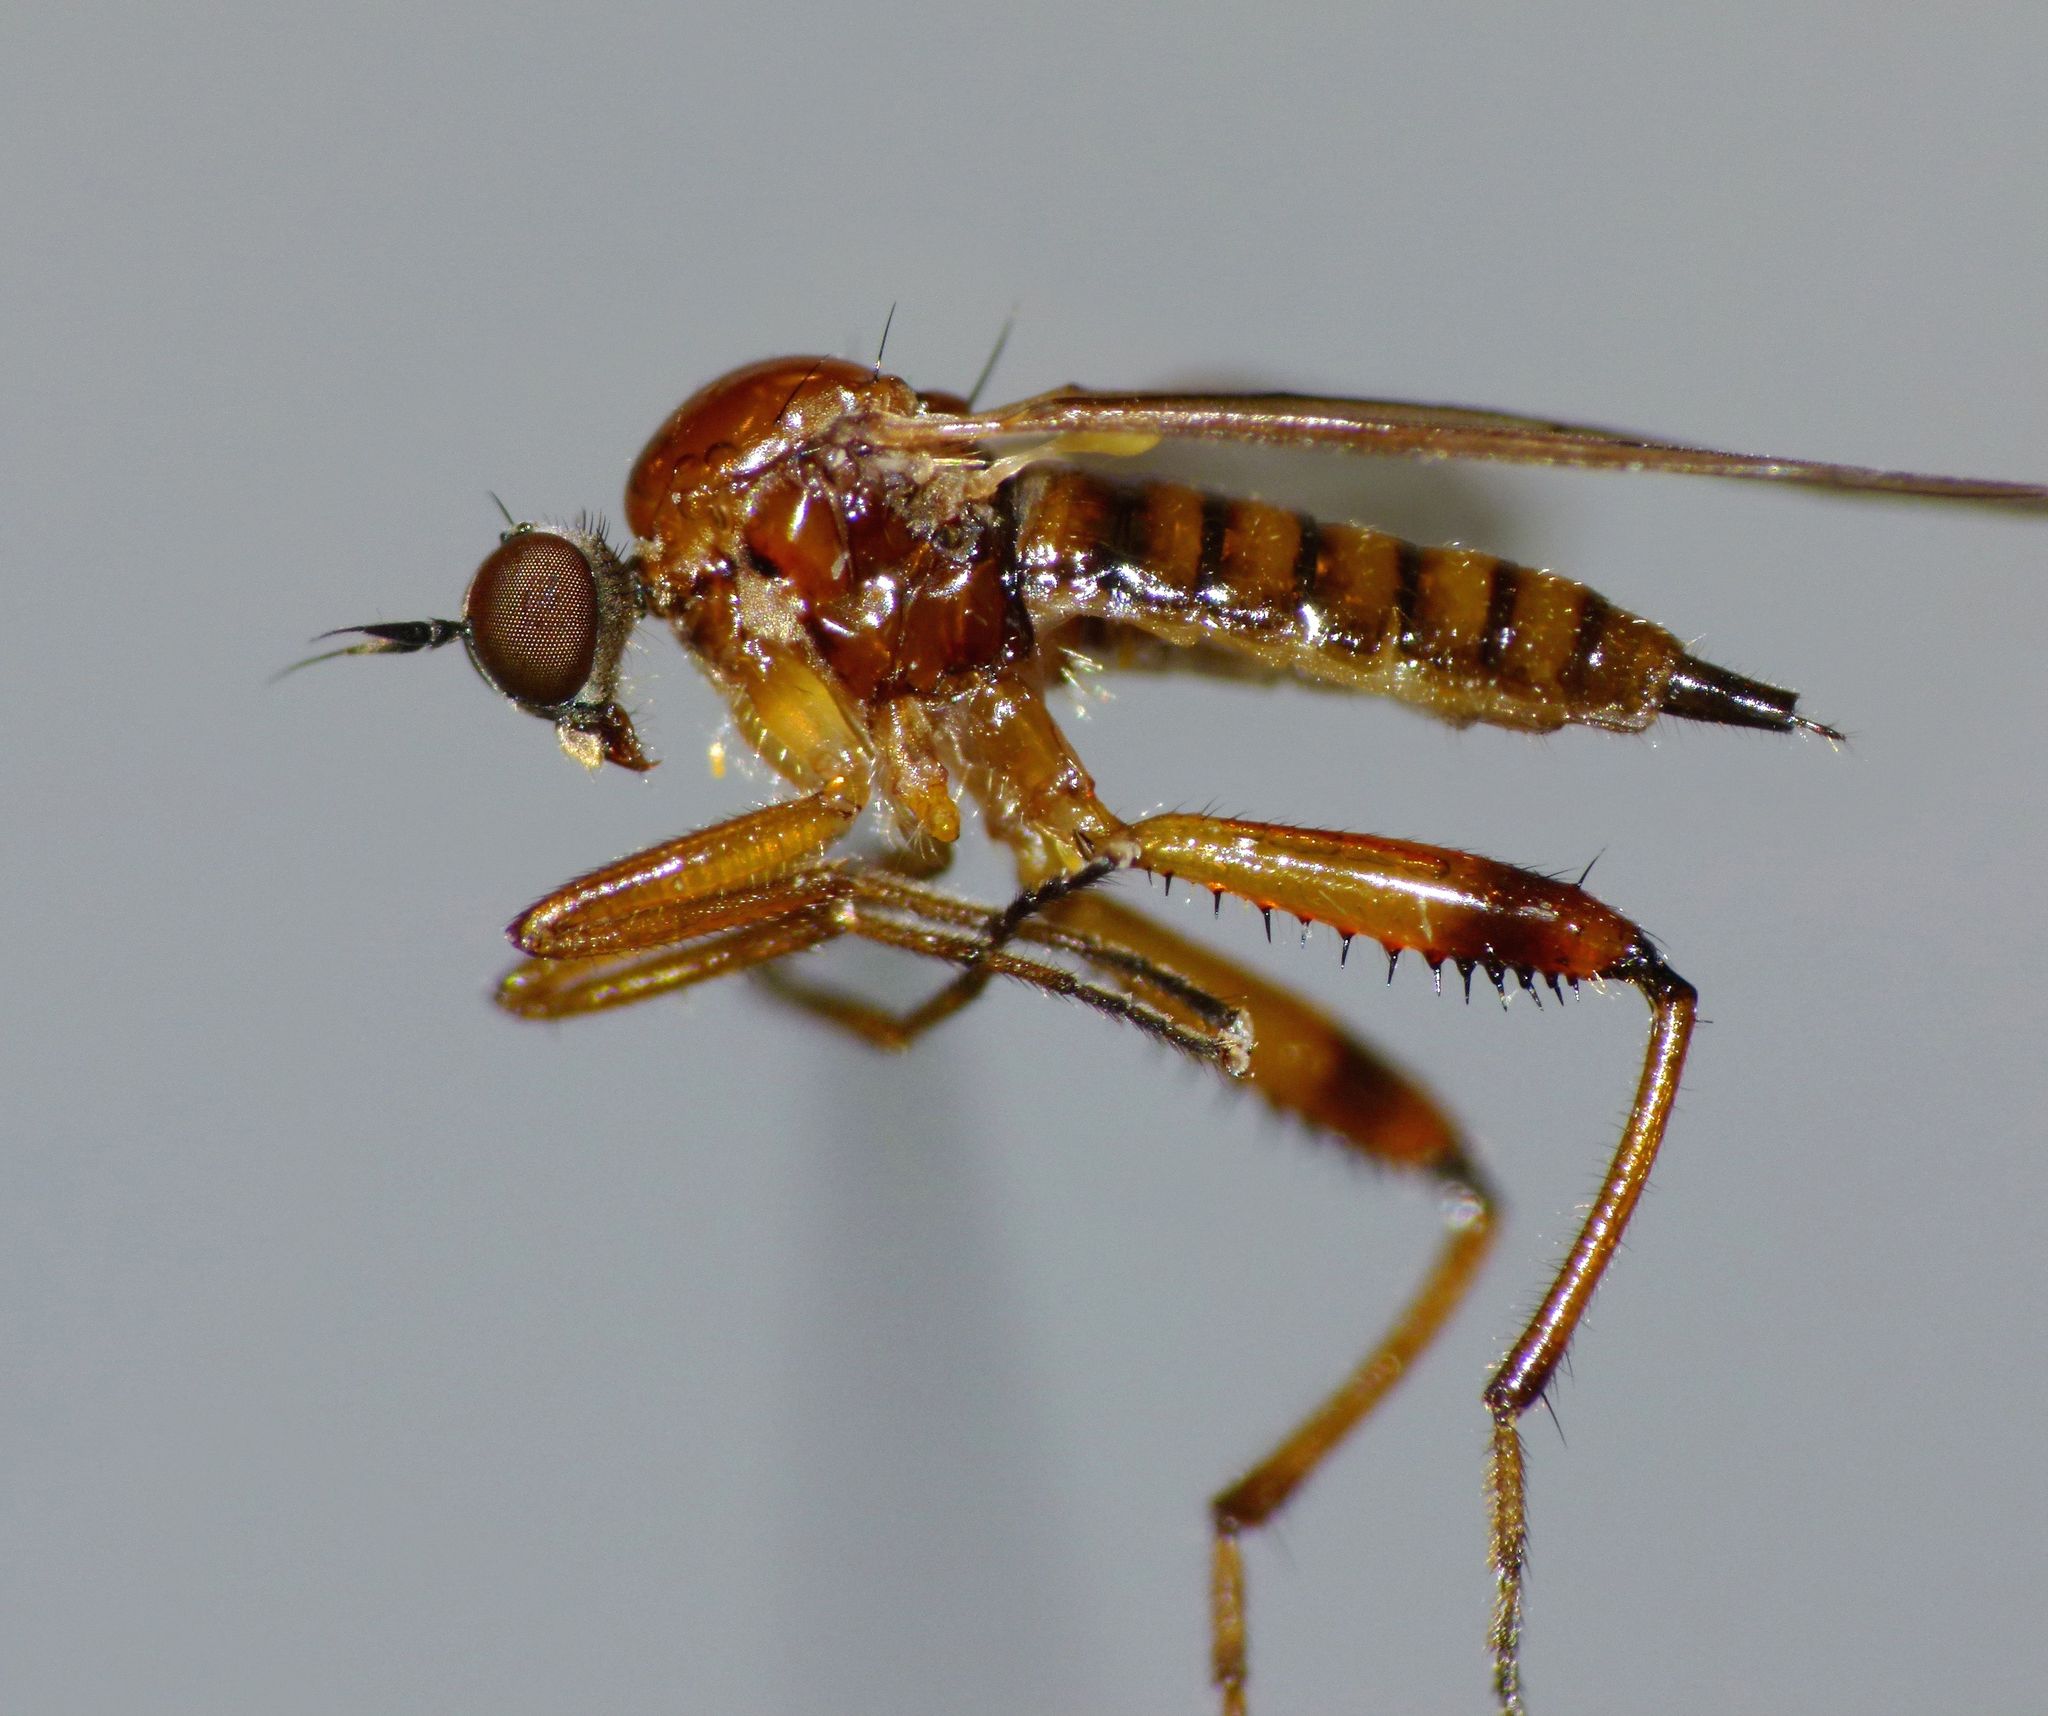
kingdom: Animalia
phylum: Arthropoda
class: Insecta
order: Diptera
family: Hybotidae
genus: Pseudoscelolabes
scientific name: Pseudoscelolabes fulvescens
